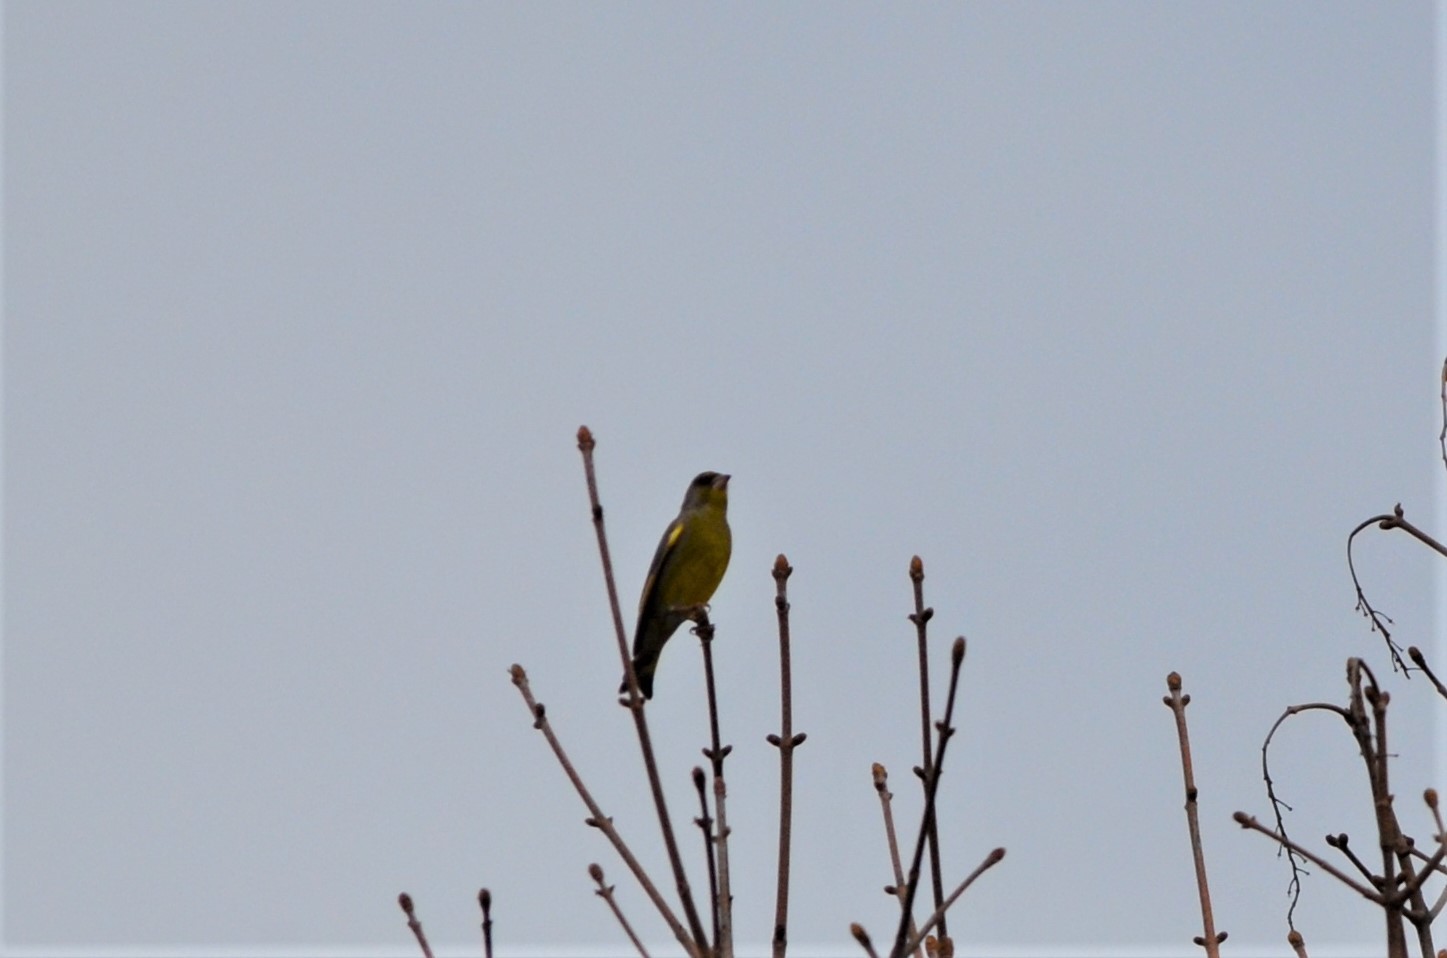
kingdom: Plantae
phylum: Tracheophyta
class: Liliopsida
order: Poales
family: Poaceae
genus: Chloris
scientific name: Chloris chloris
